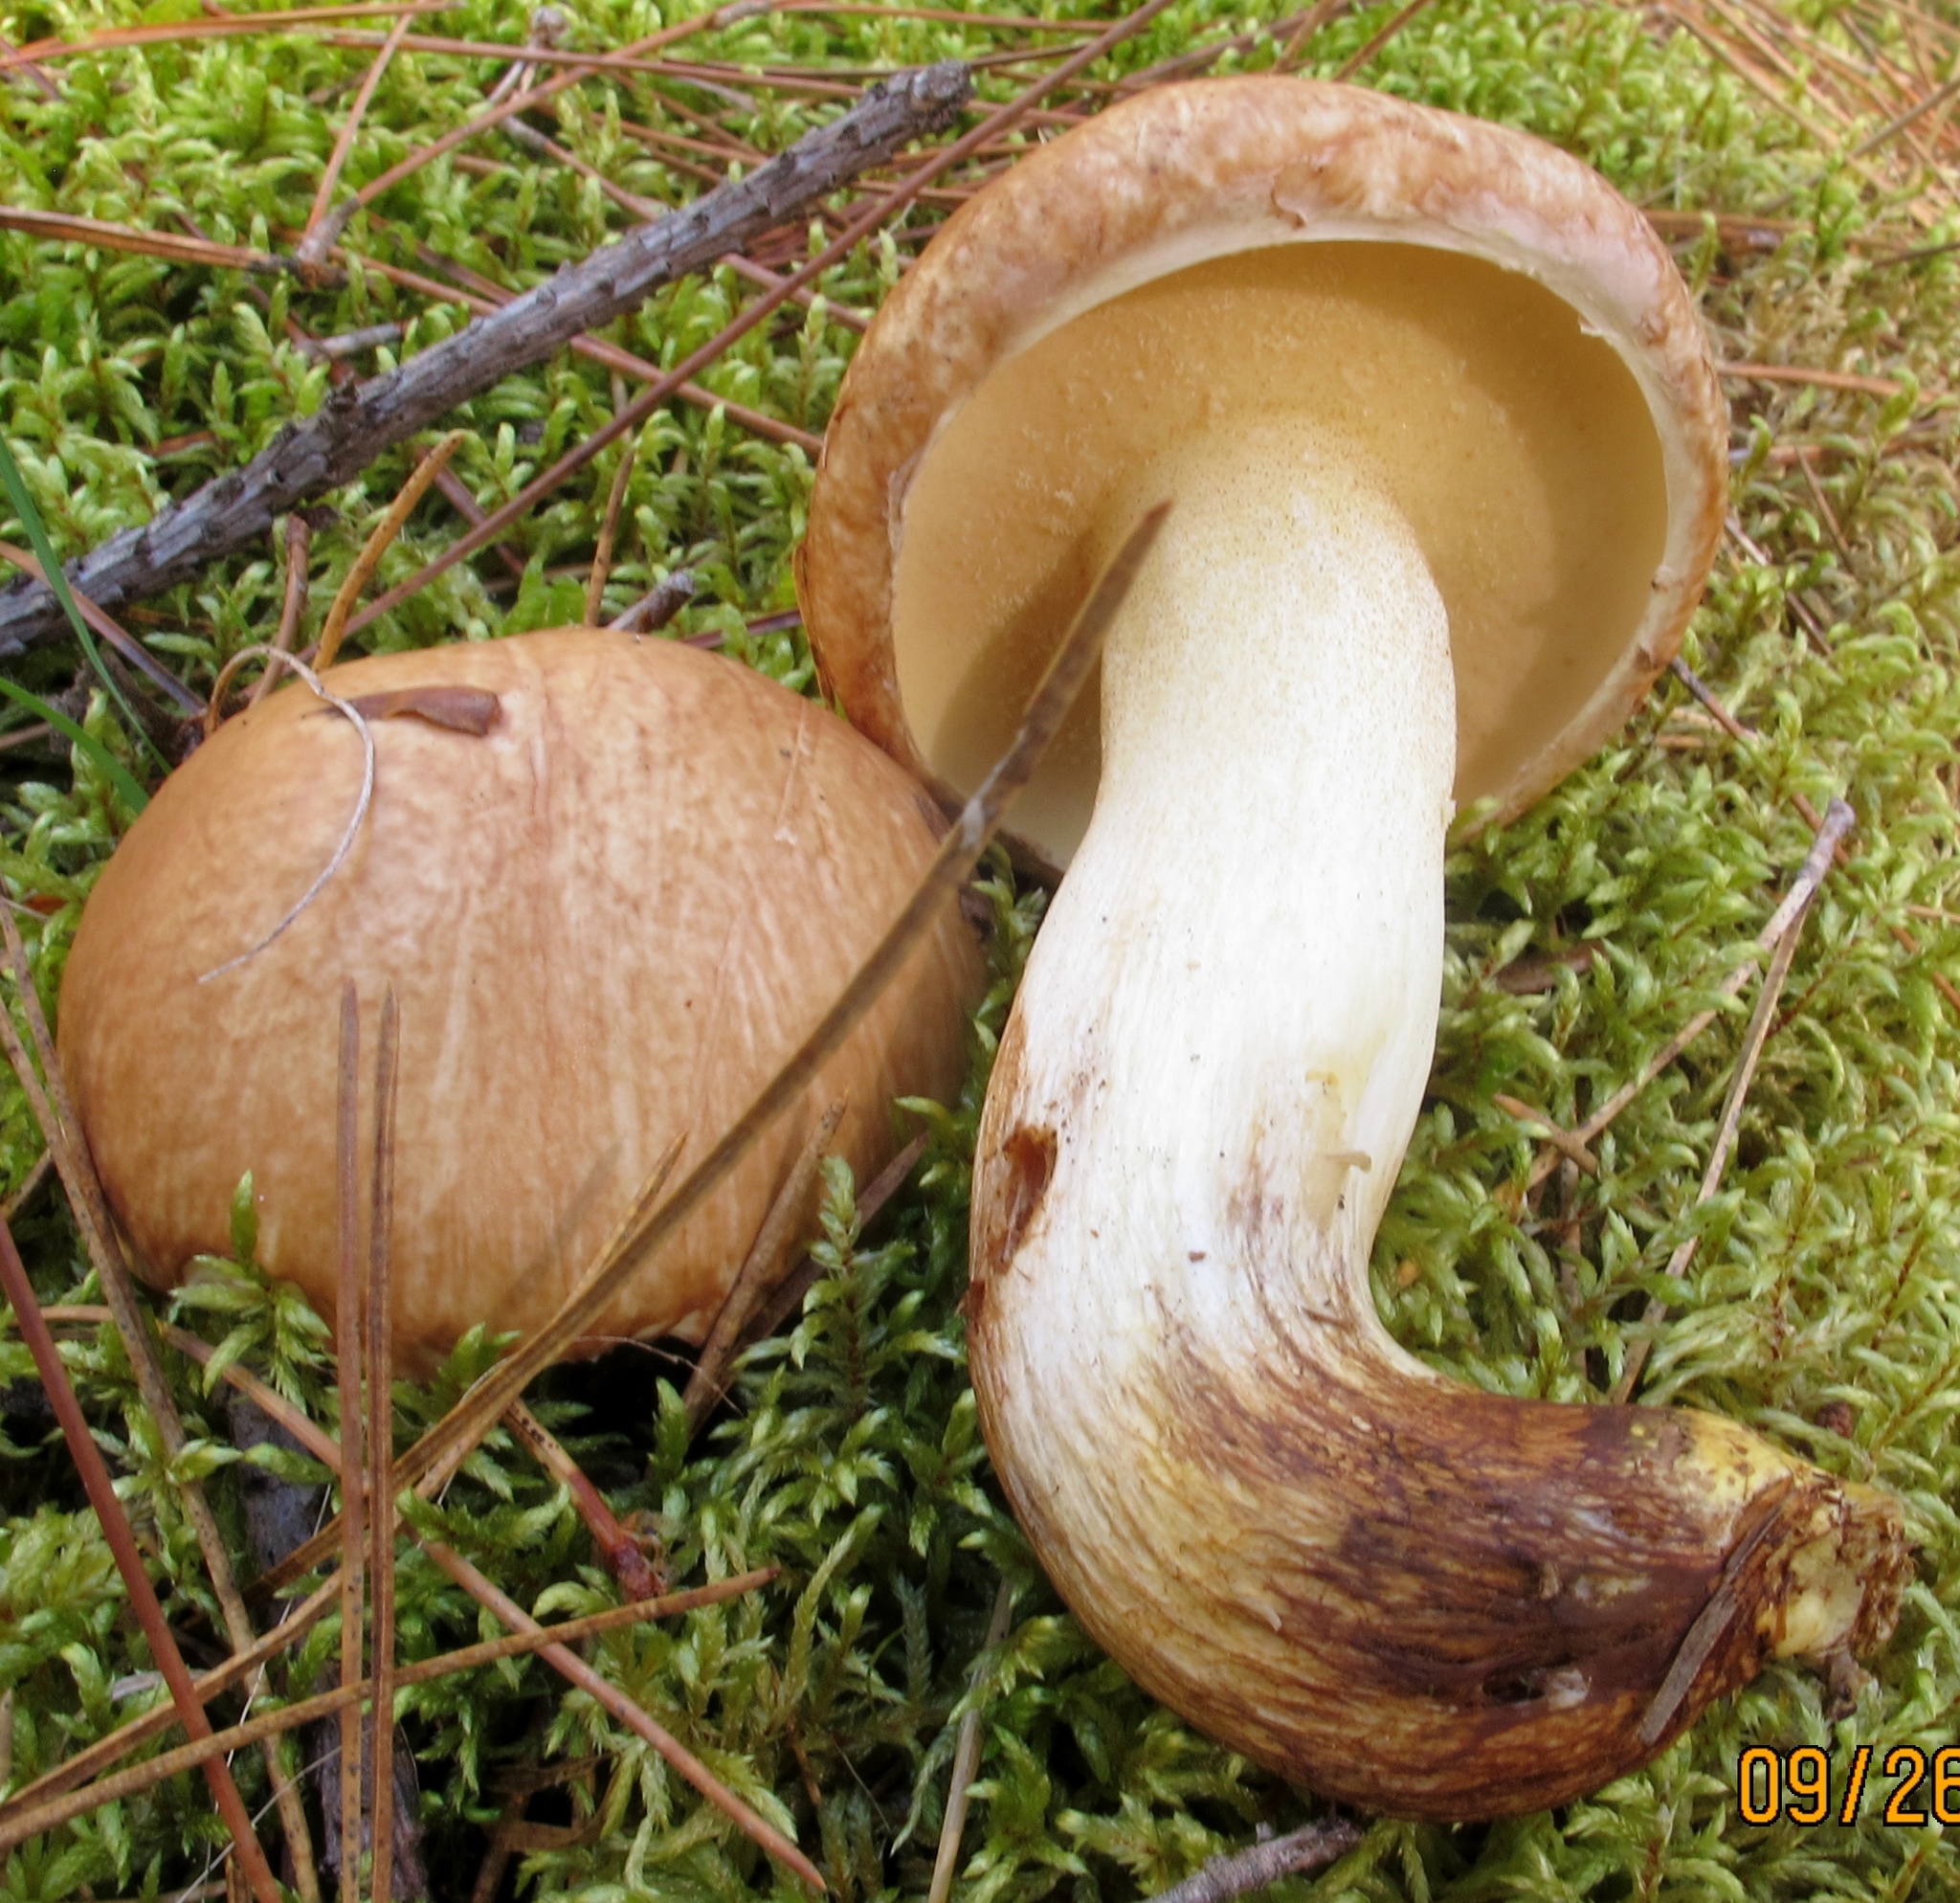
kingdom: Fungi
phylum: Basidiomycota
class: Agaricomycetes
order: Boletales
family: Suillaceae
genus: Suillus
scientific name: Suillus granulatus
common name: Weeping bolete
